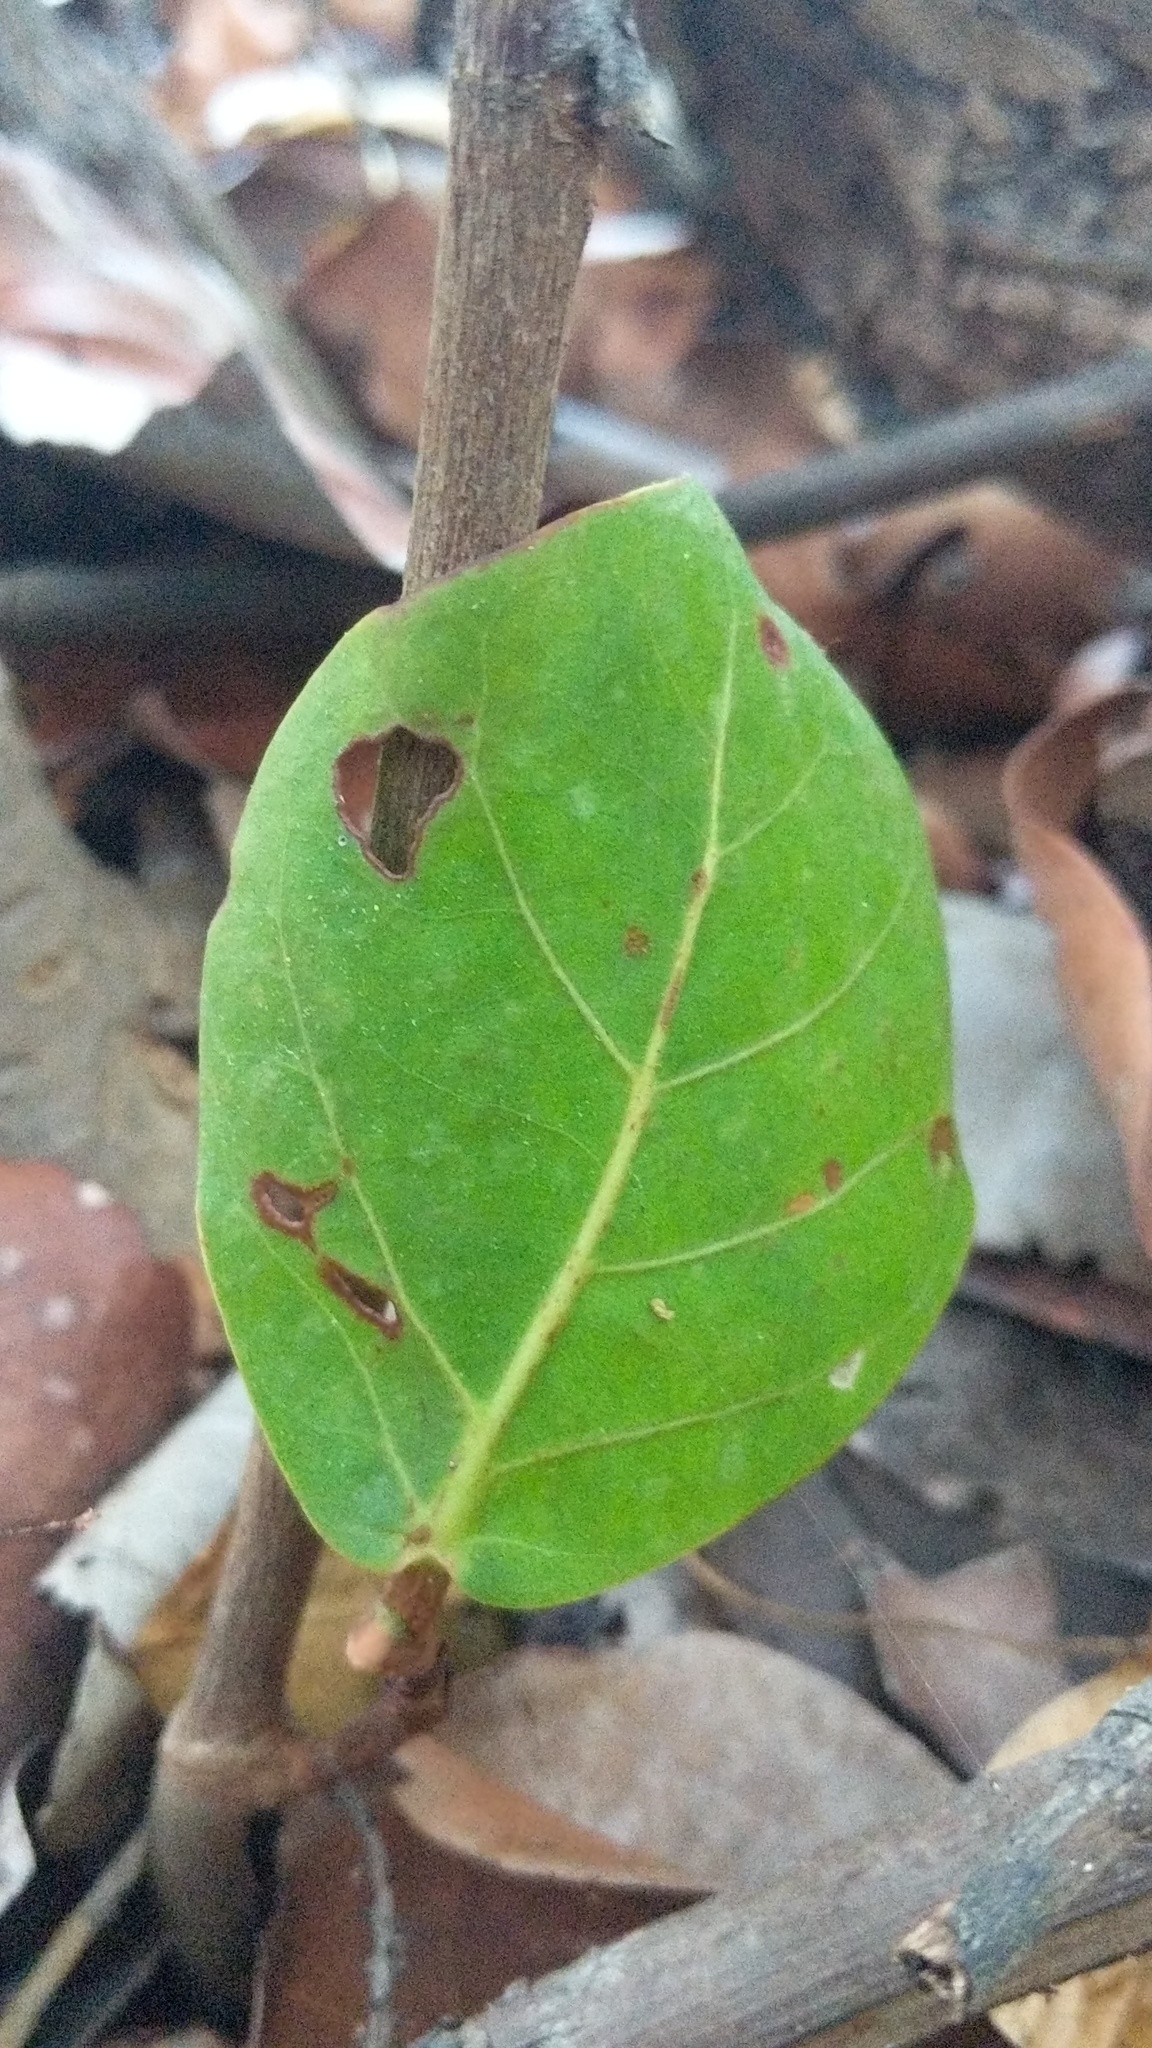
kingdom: Plantae
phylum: Tracheophyta
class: Magnoliopsida
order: Caryophyllales
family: Polygonaceae
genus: Coccoloba
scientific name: Coccoloba uvifera
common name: Seagrape
